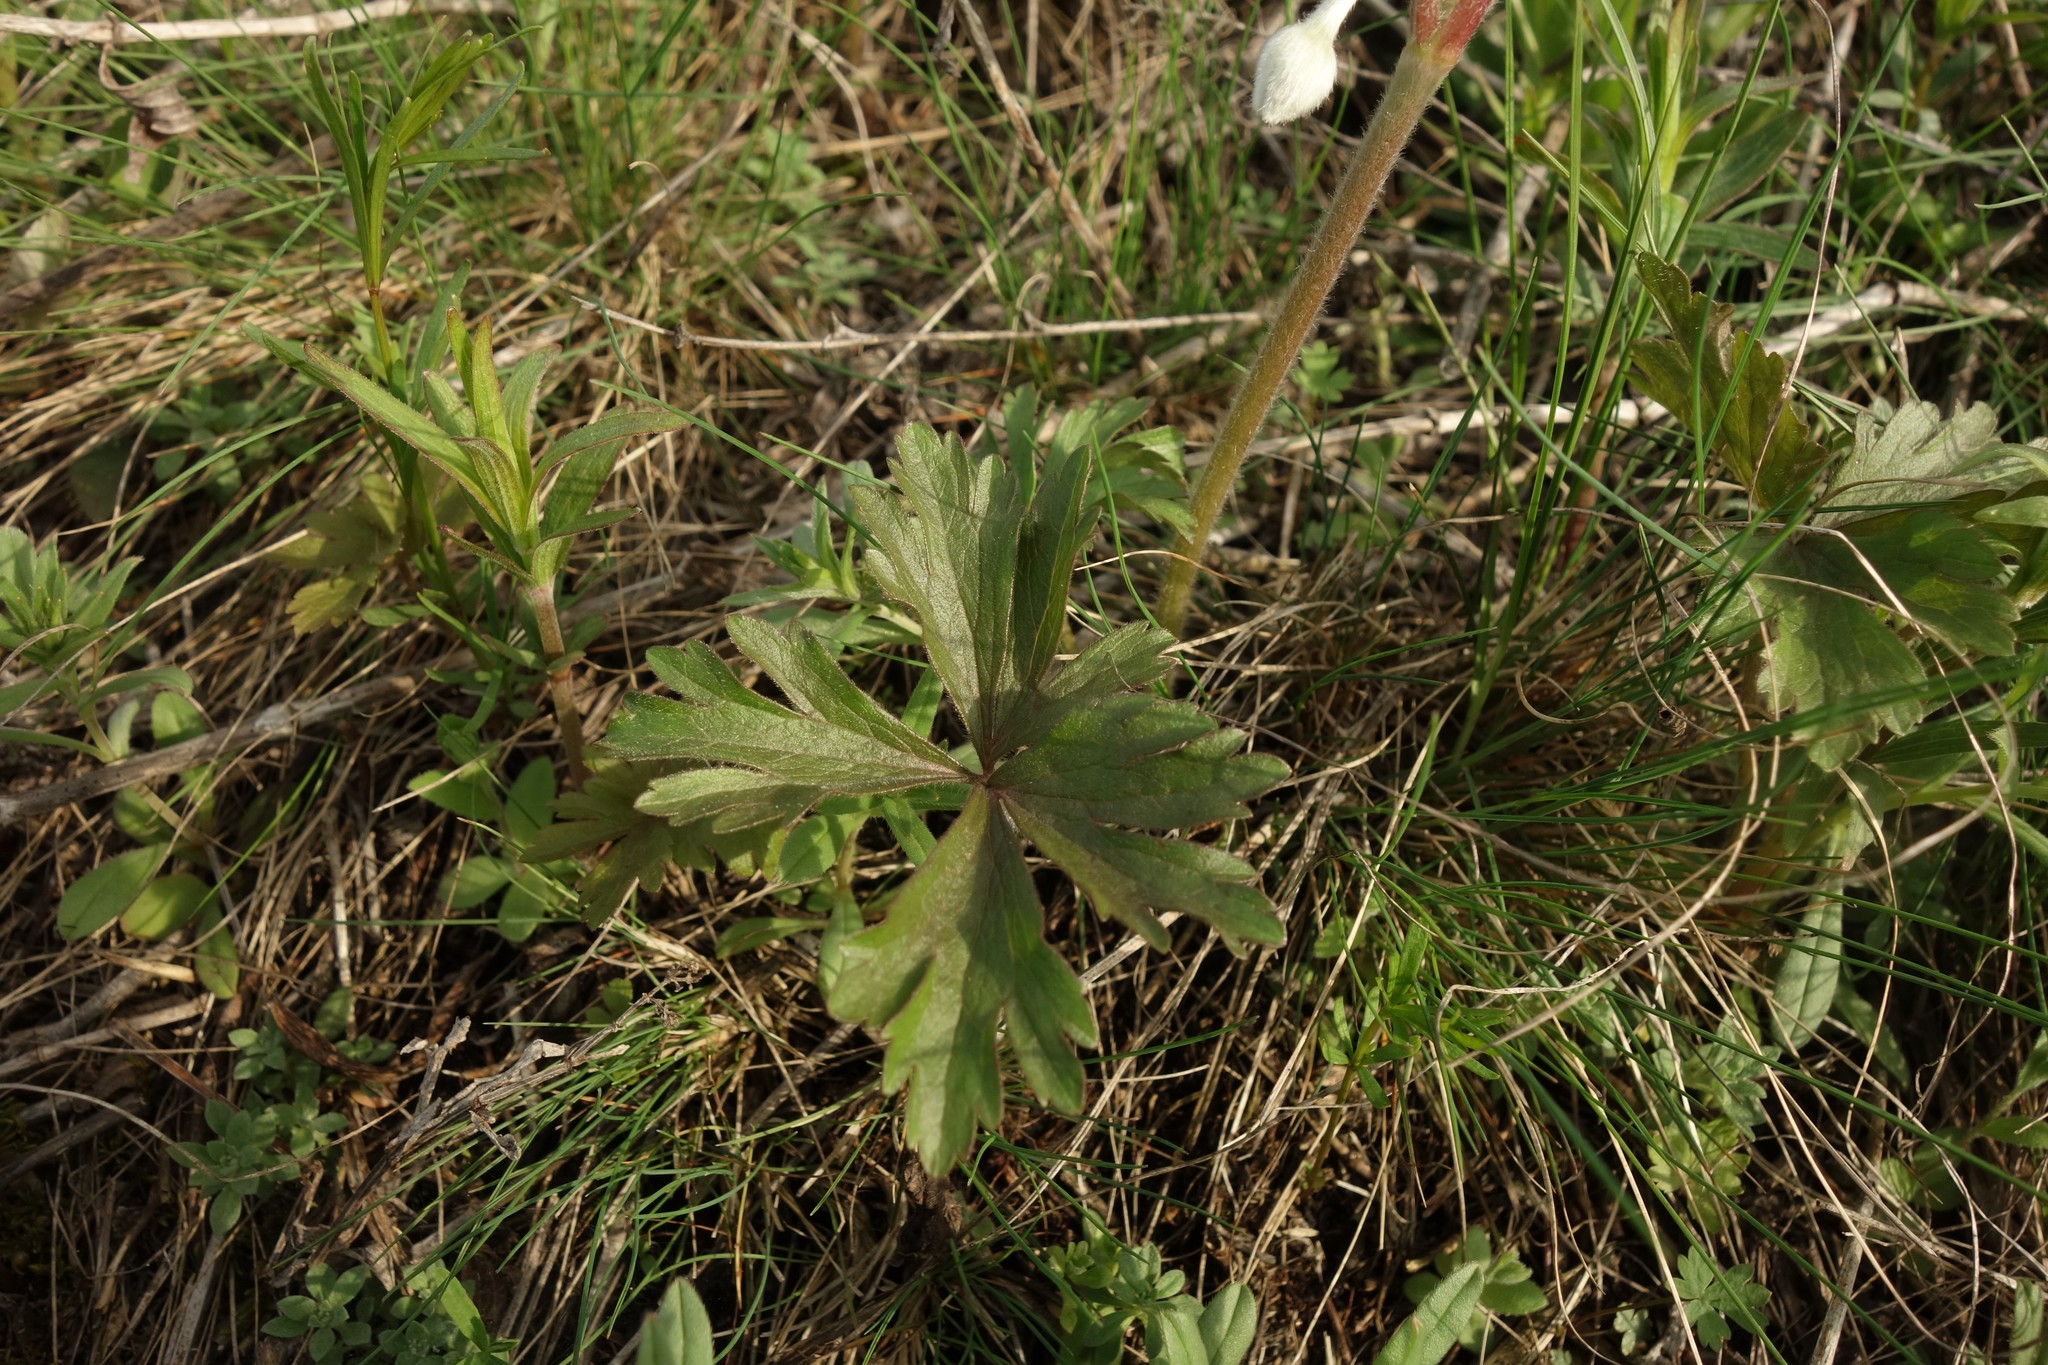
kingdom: Plantae
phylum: Tracheophyta
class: Magnoliopsida
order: Ranunculales
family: Ranunculaceae
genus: Anemone
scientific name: Anemone sylvestris
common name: Snowdrop anemone
